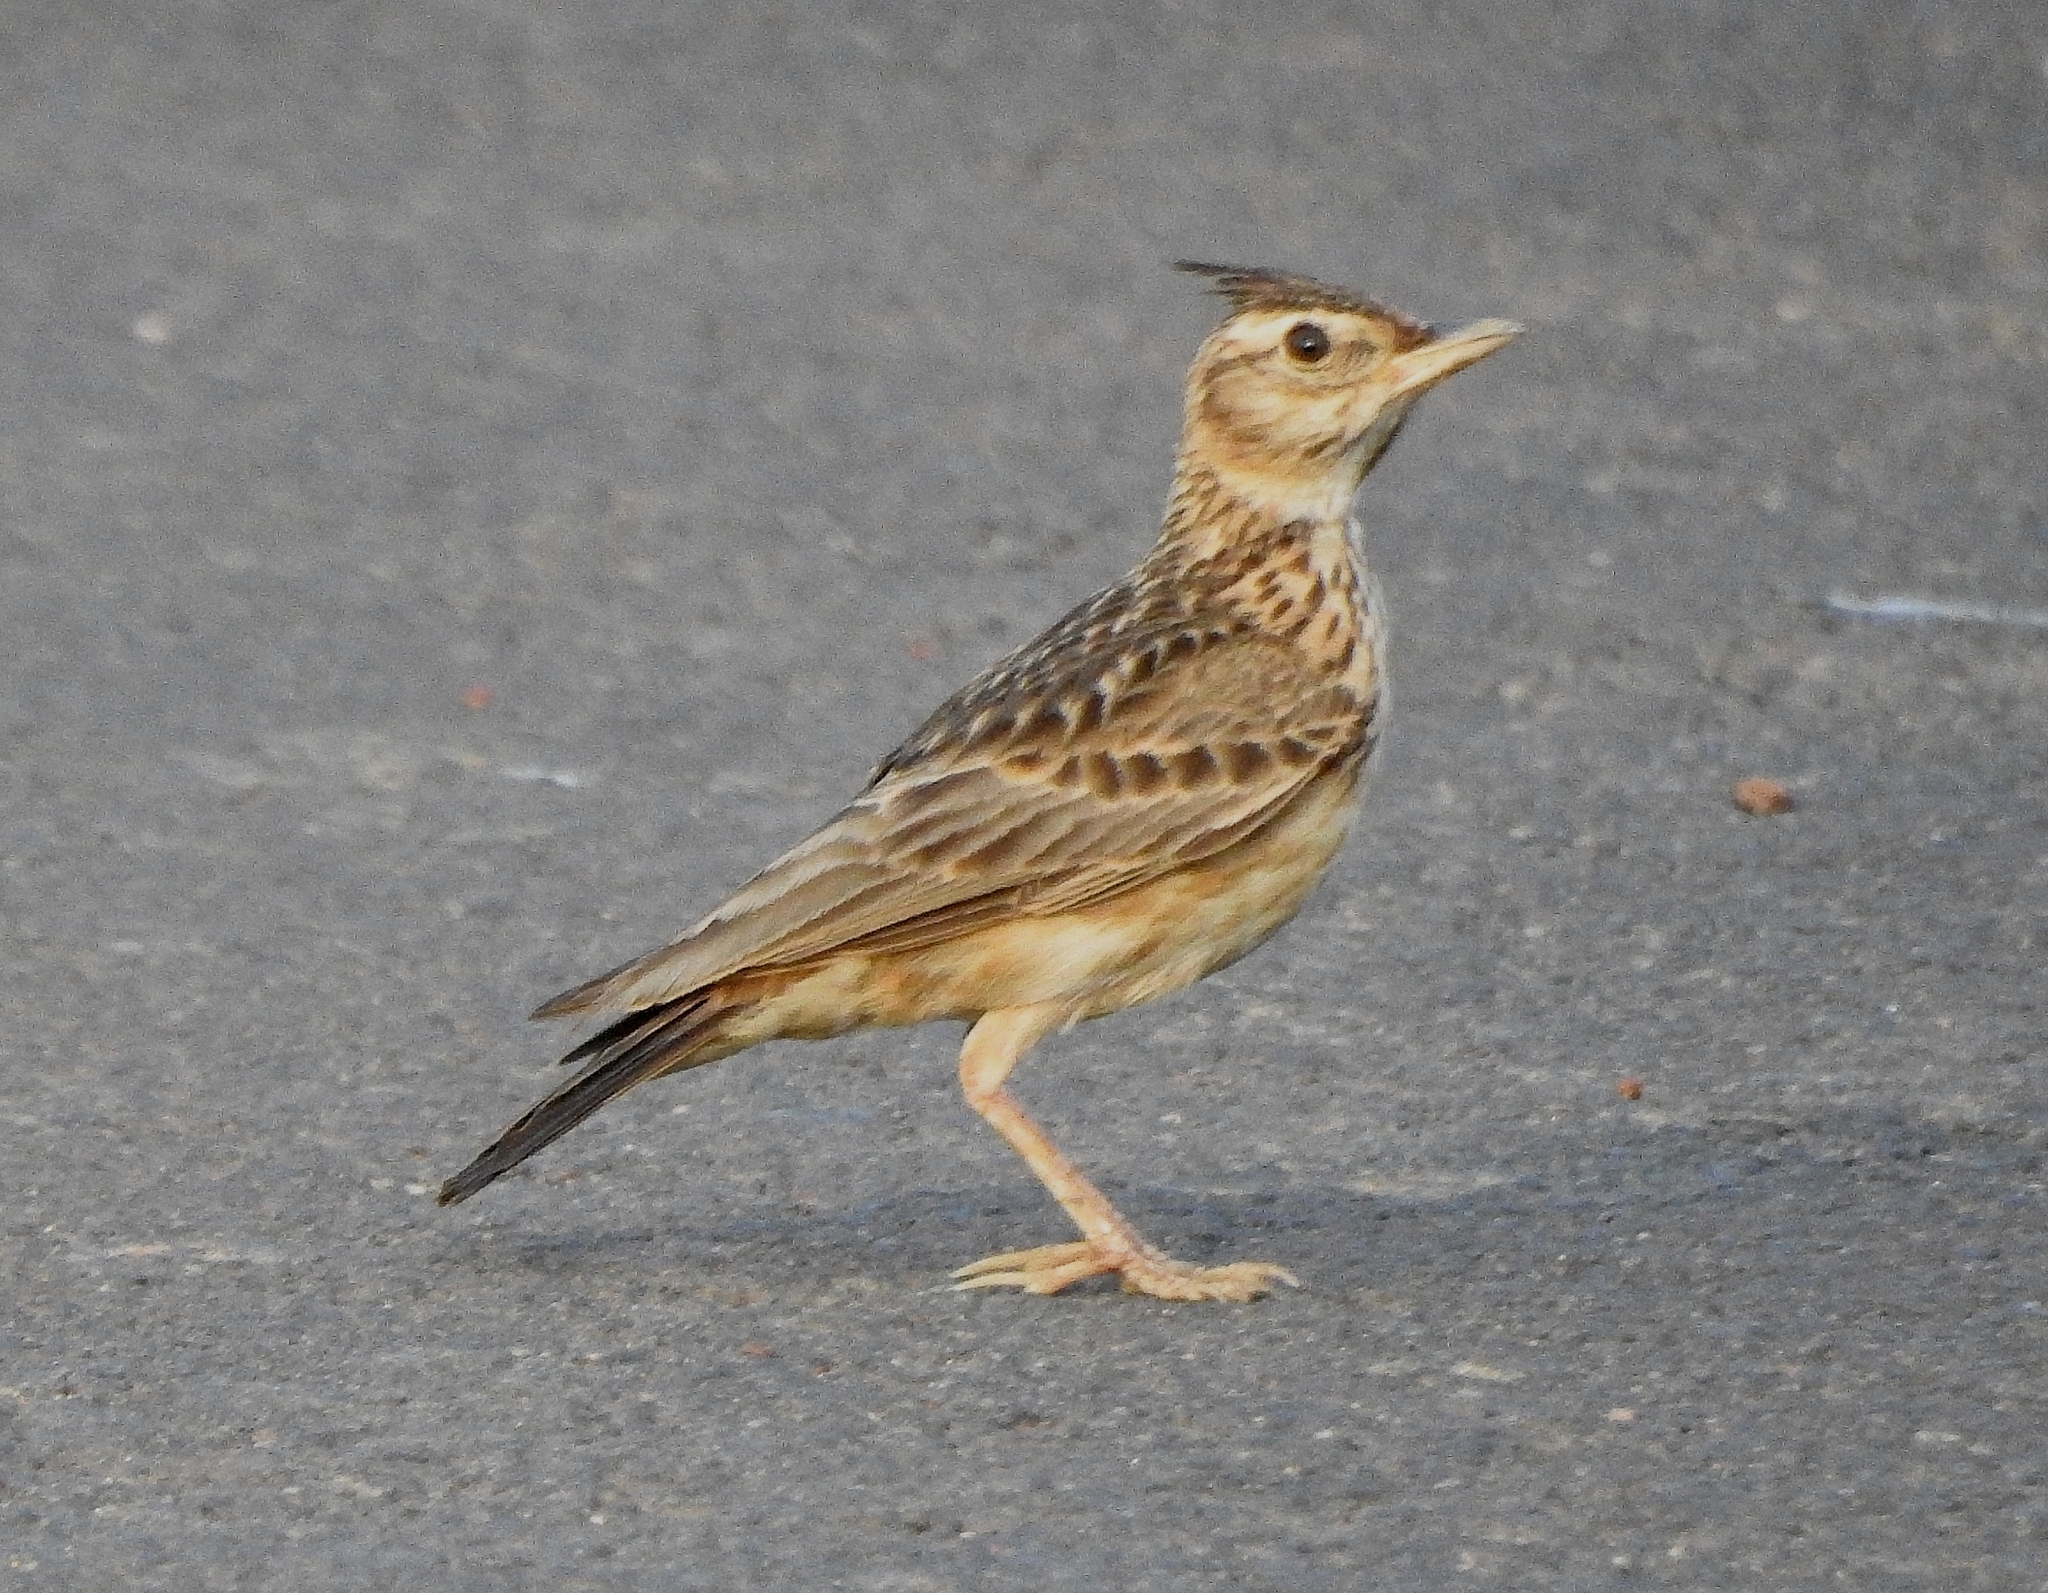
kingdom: Animalia
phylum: Chordata
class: Aves
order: Passeriformes
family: Alaudidae
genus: Galerida
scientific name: Galerida malabarica
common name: Malabar lark
